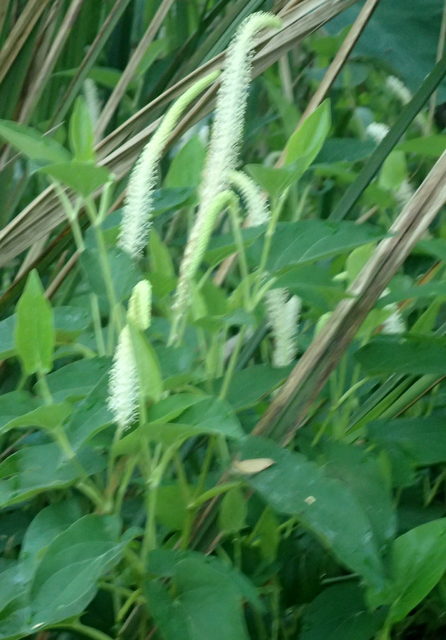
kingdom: Plantae
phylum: Tracheophyta
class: Magnoliopsida
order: Piperales
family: Saururaceae
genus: Saururus
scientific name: Saururus cernuus
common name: Lizard's-tail
